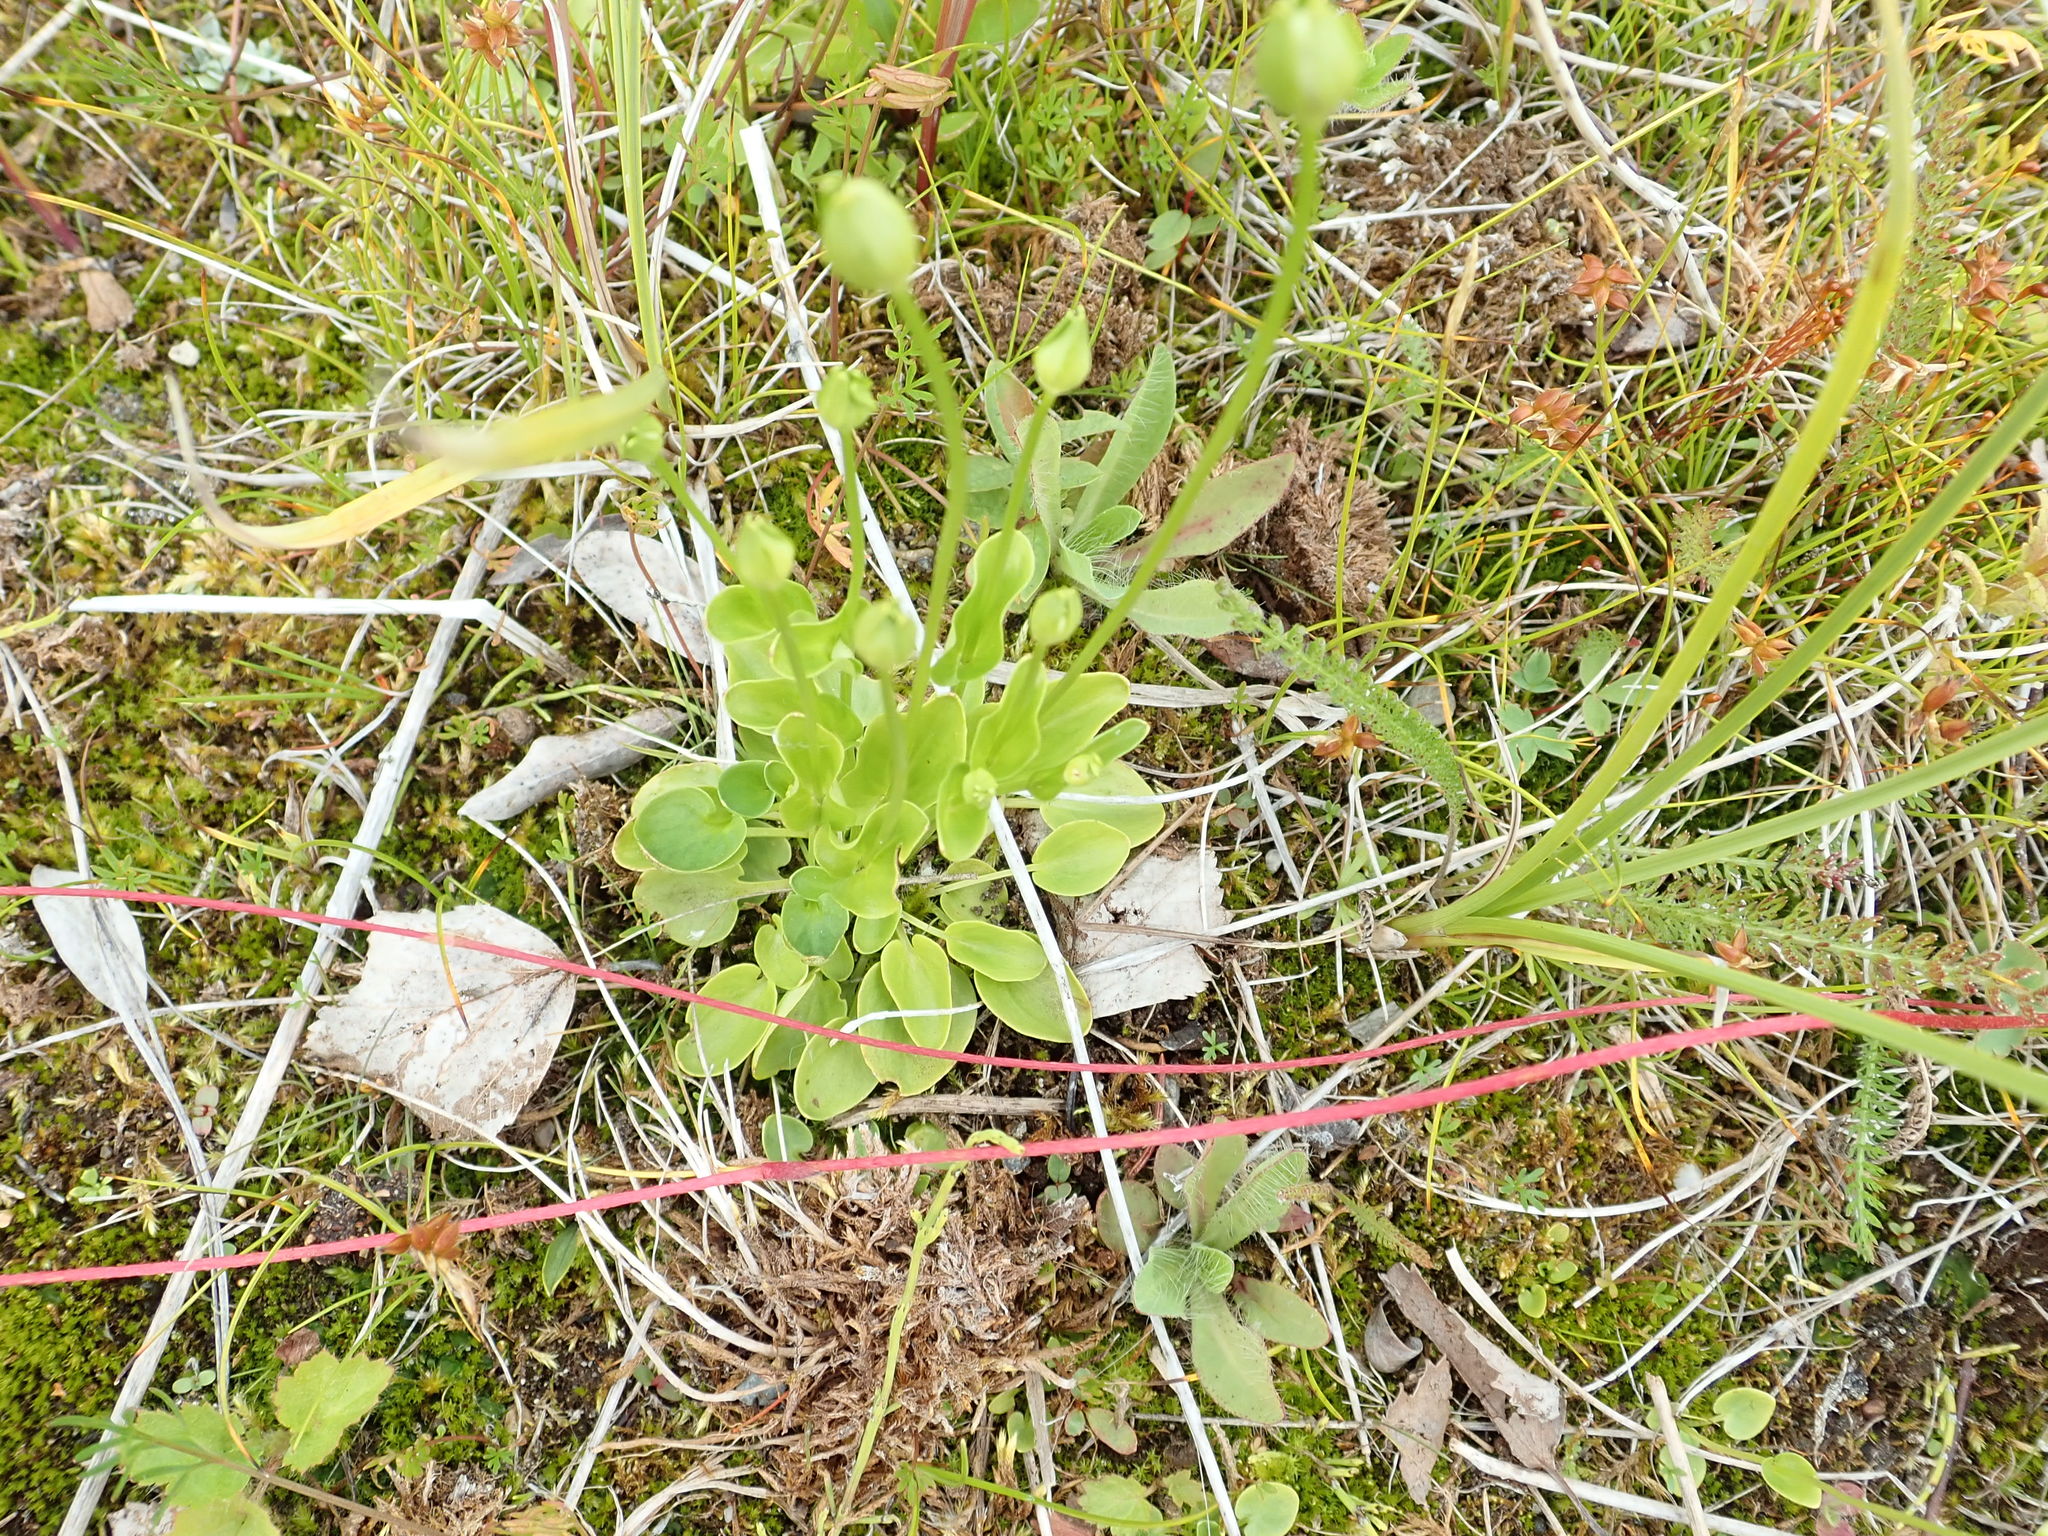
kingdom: Plantae
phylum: Tracheophyta
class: Magnoliopsida
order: Celastrales
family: Parnassiaceae
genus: Parnassia
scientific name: Parnassia palustris
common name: Grass-of-parnassus
